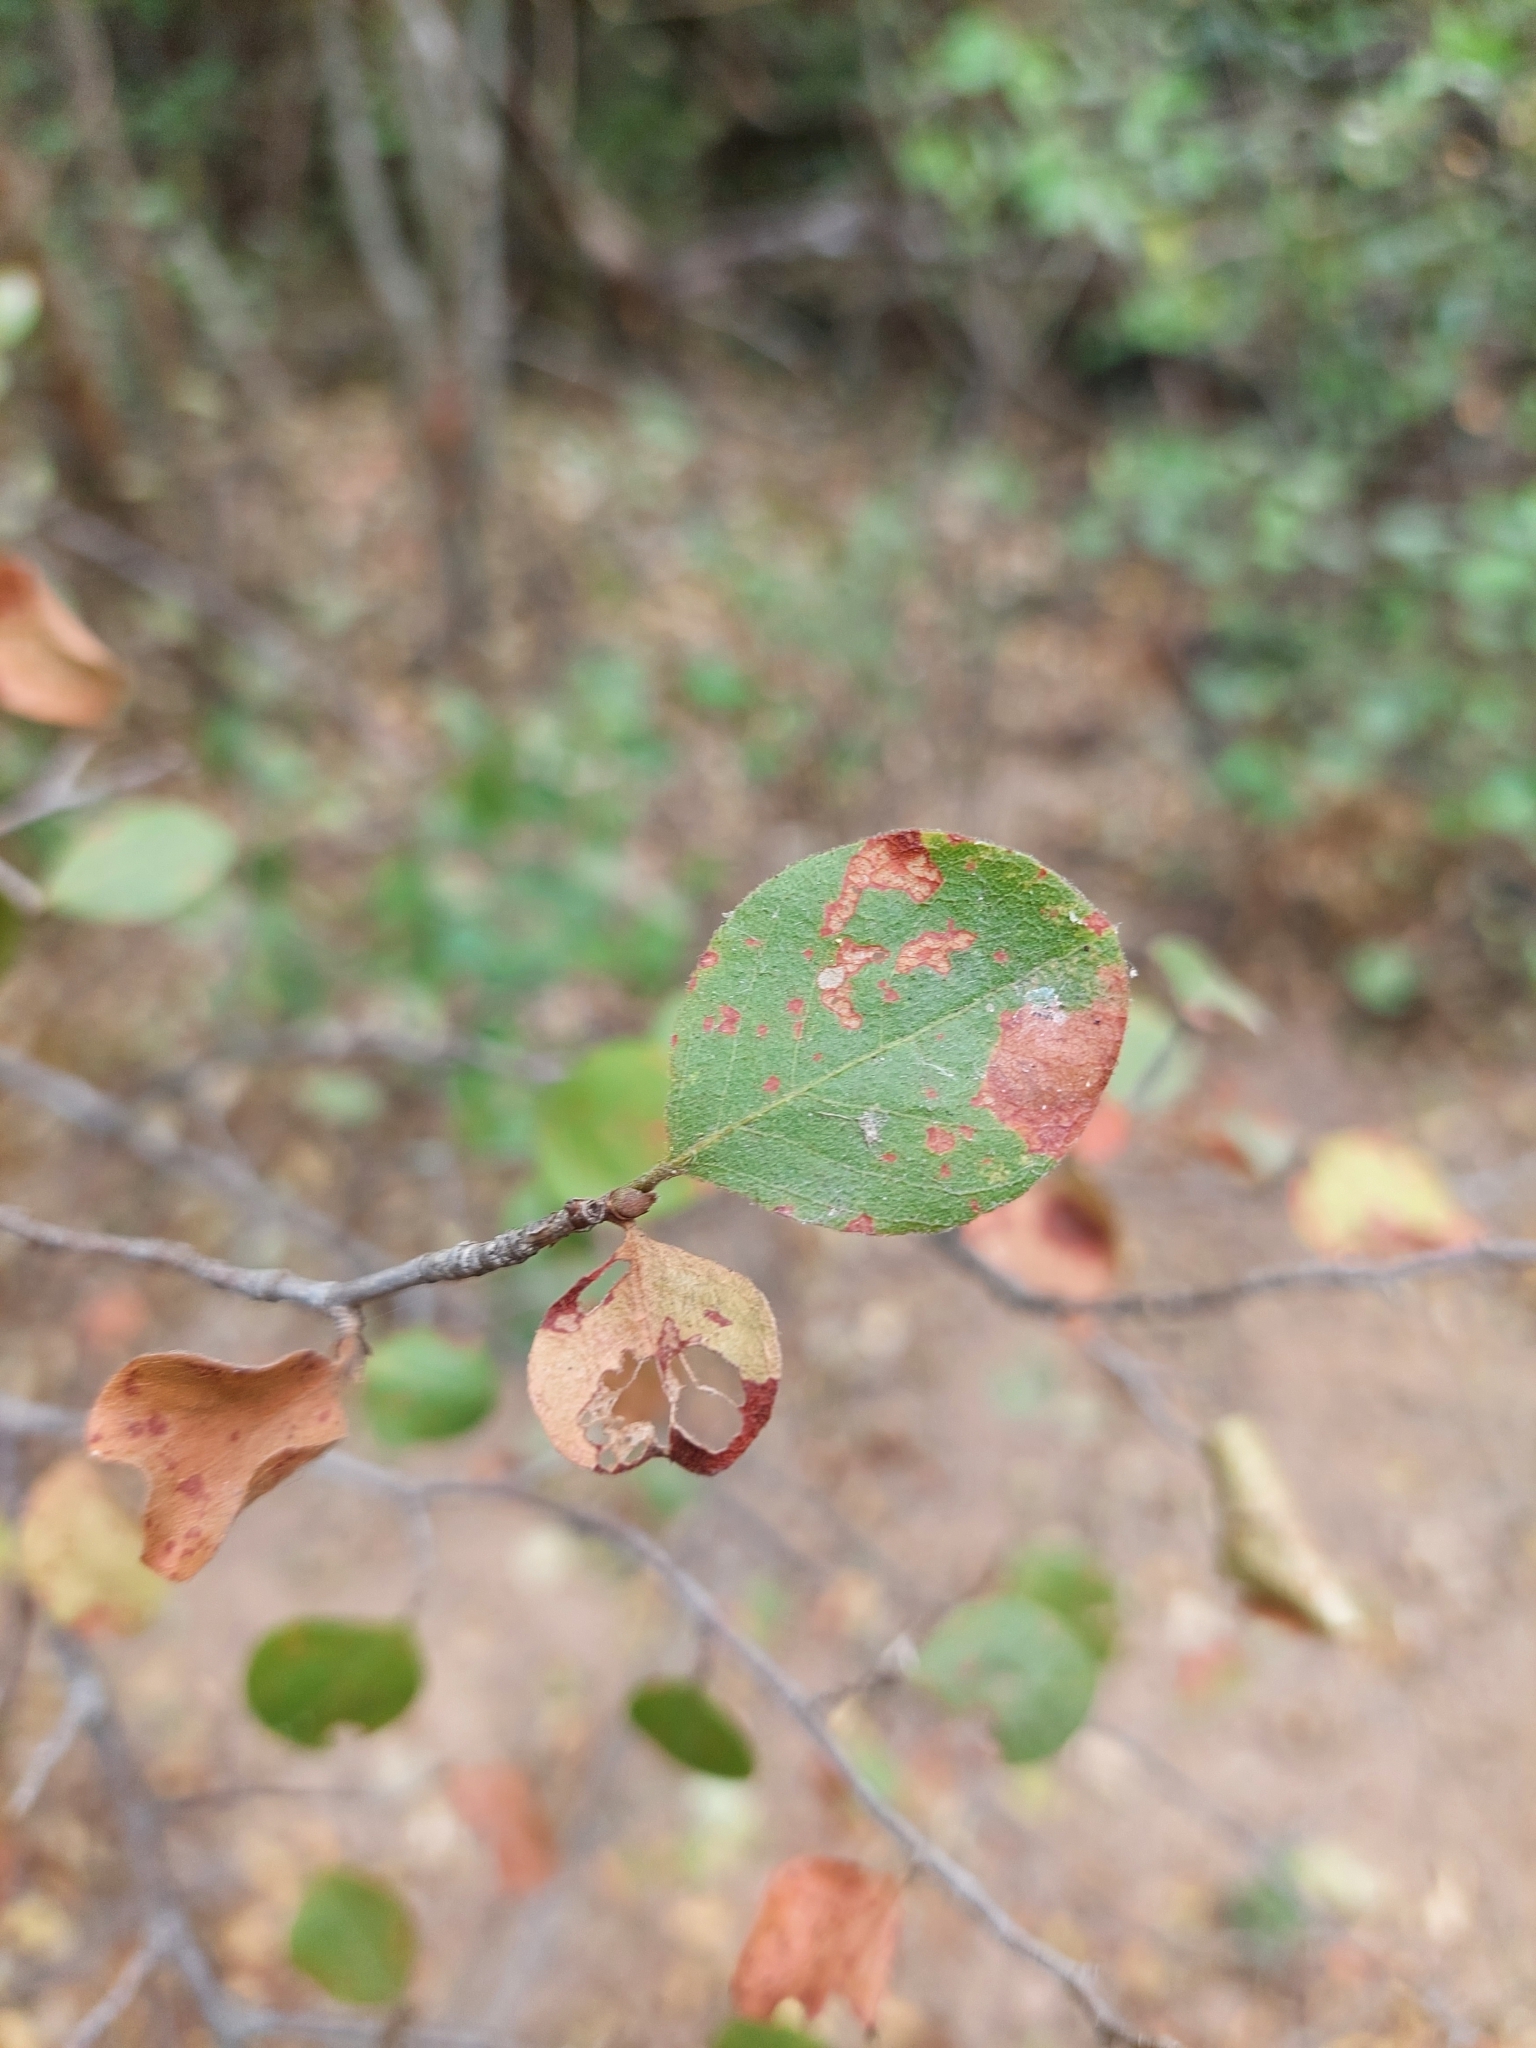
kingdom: Plantae
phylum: Tracheophyta
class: Magnoliopsida
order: Caryophyllales
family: Polygonaceae
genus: Salta
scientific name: Salta triflora
